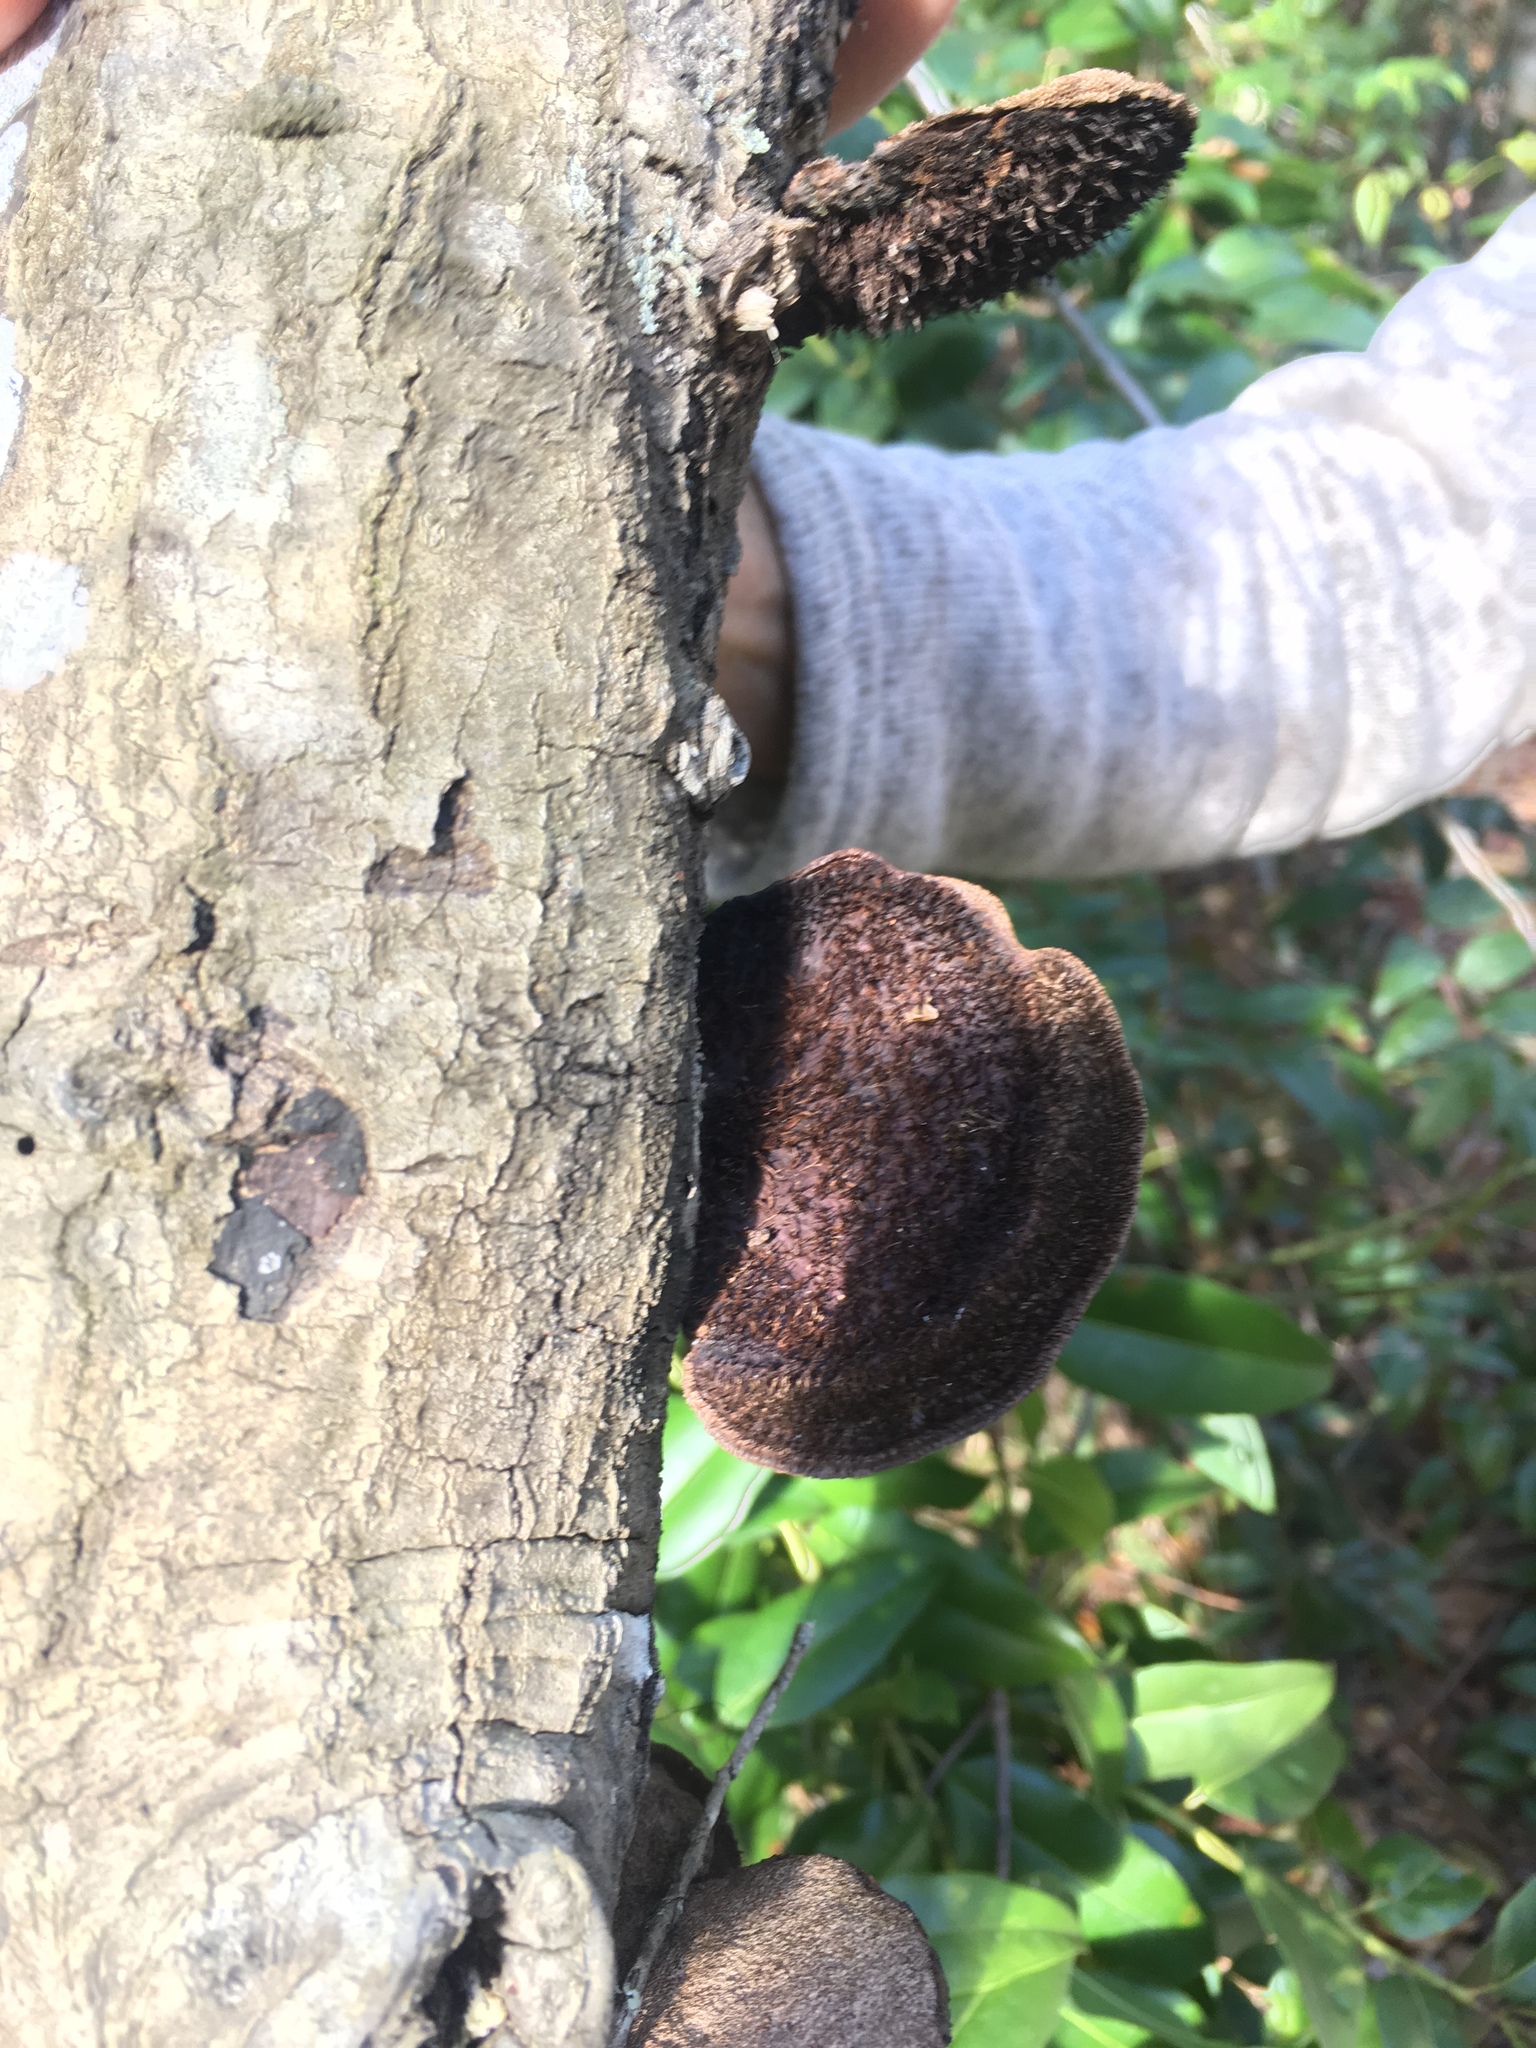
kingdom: Fungi
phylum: Basidiomycota
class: Agaricomycetes
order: Polyporales
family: Cerrenaceae
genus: Cerrena
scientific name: Cerrena hydnoides
